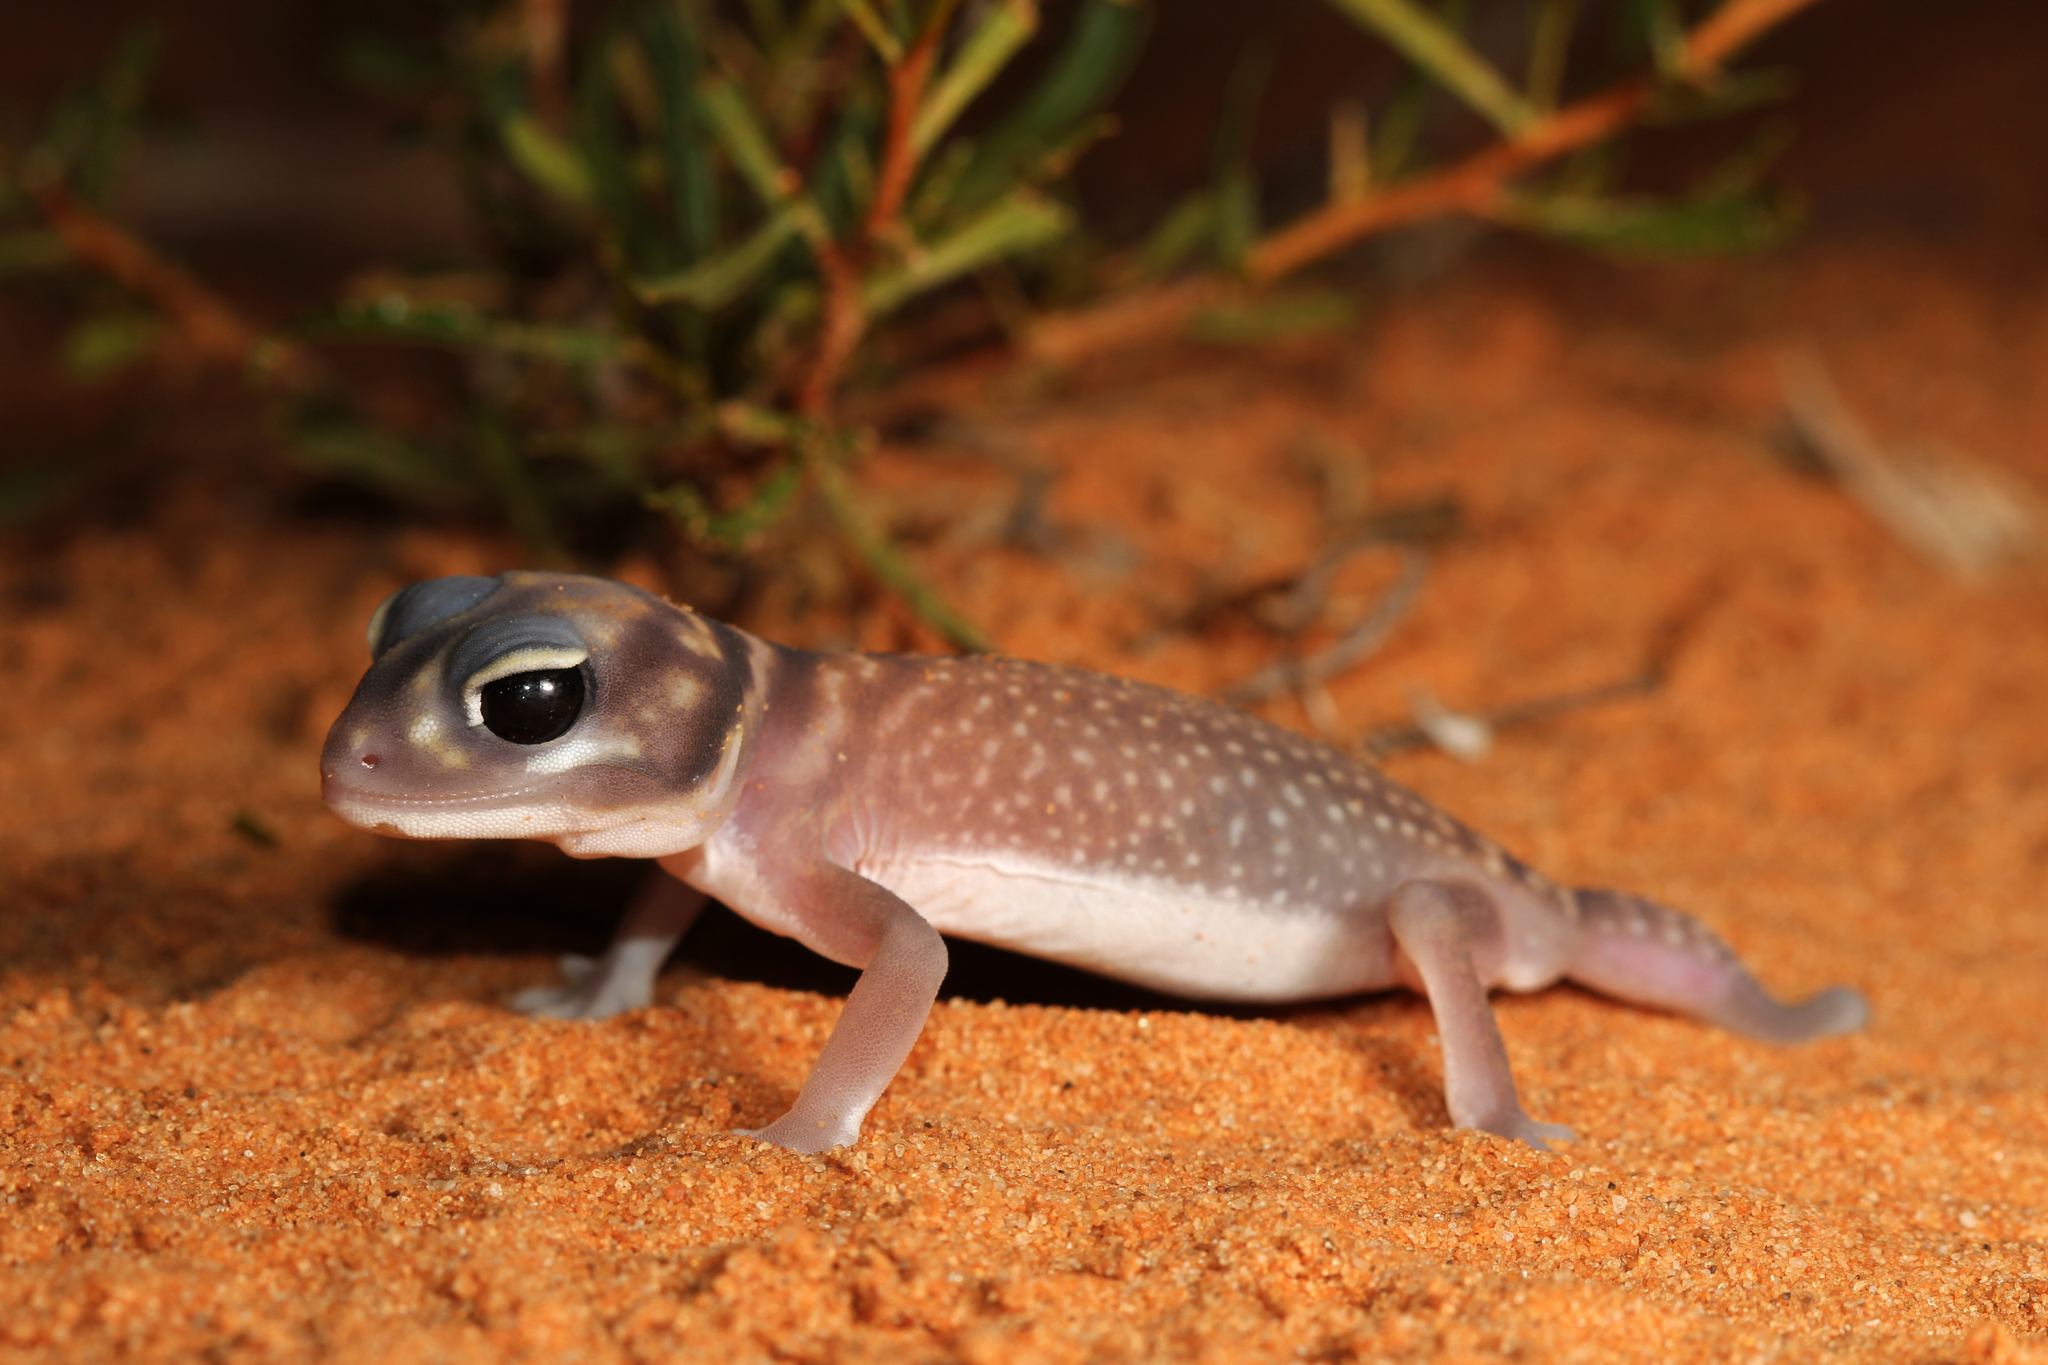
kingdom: Animalia
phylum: Chordata
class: Squamata
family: Carphodactylidae
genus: Nephrurus
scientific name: Nephrurus stellatus
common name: Southern knob-tailed gecko
